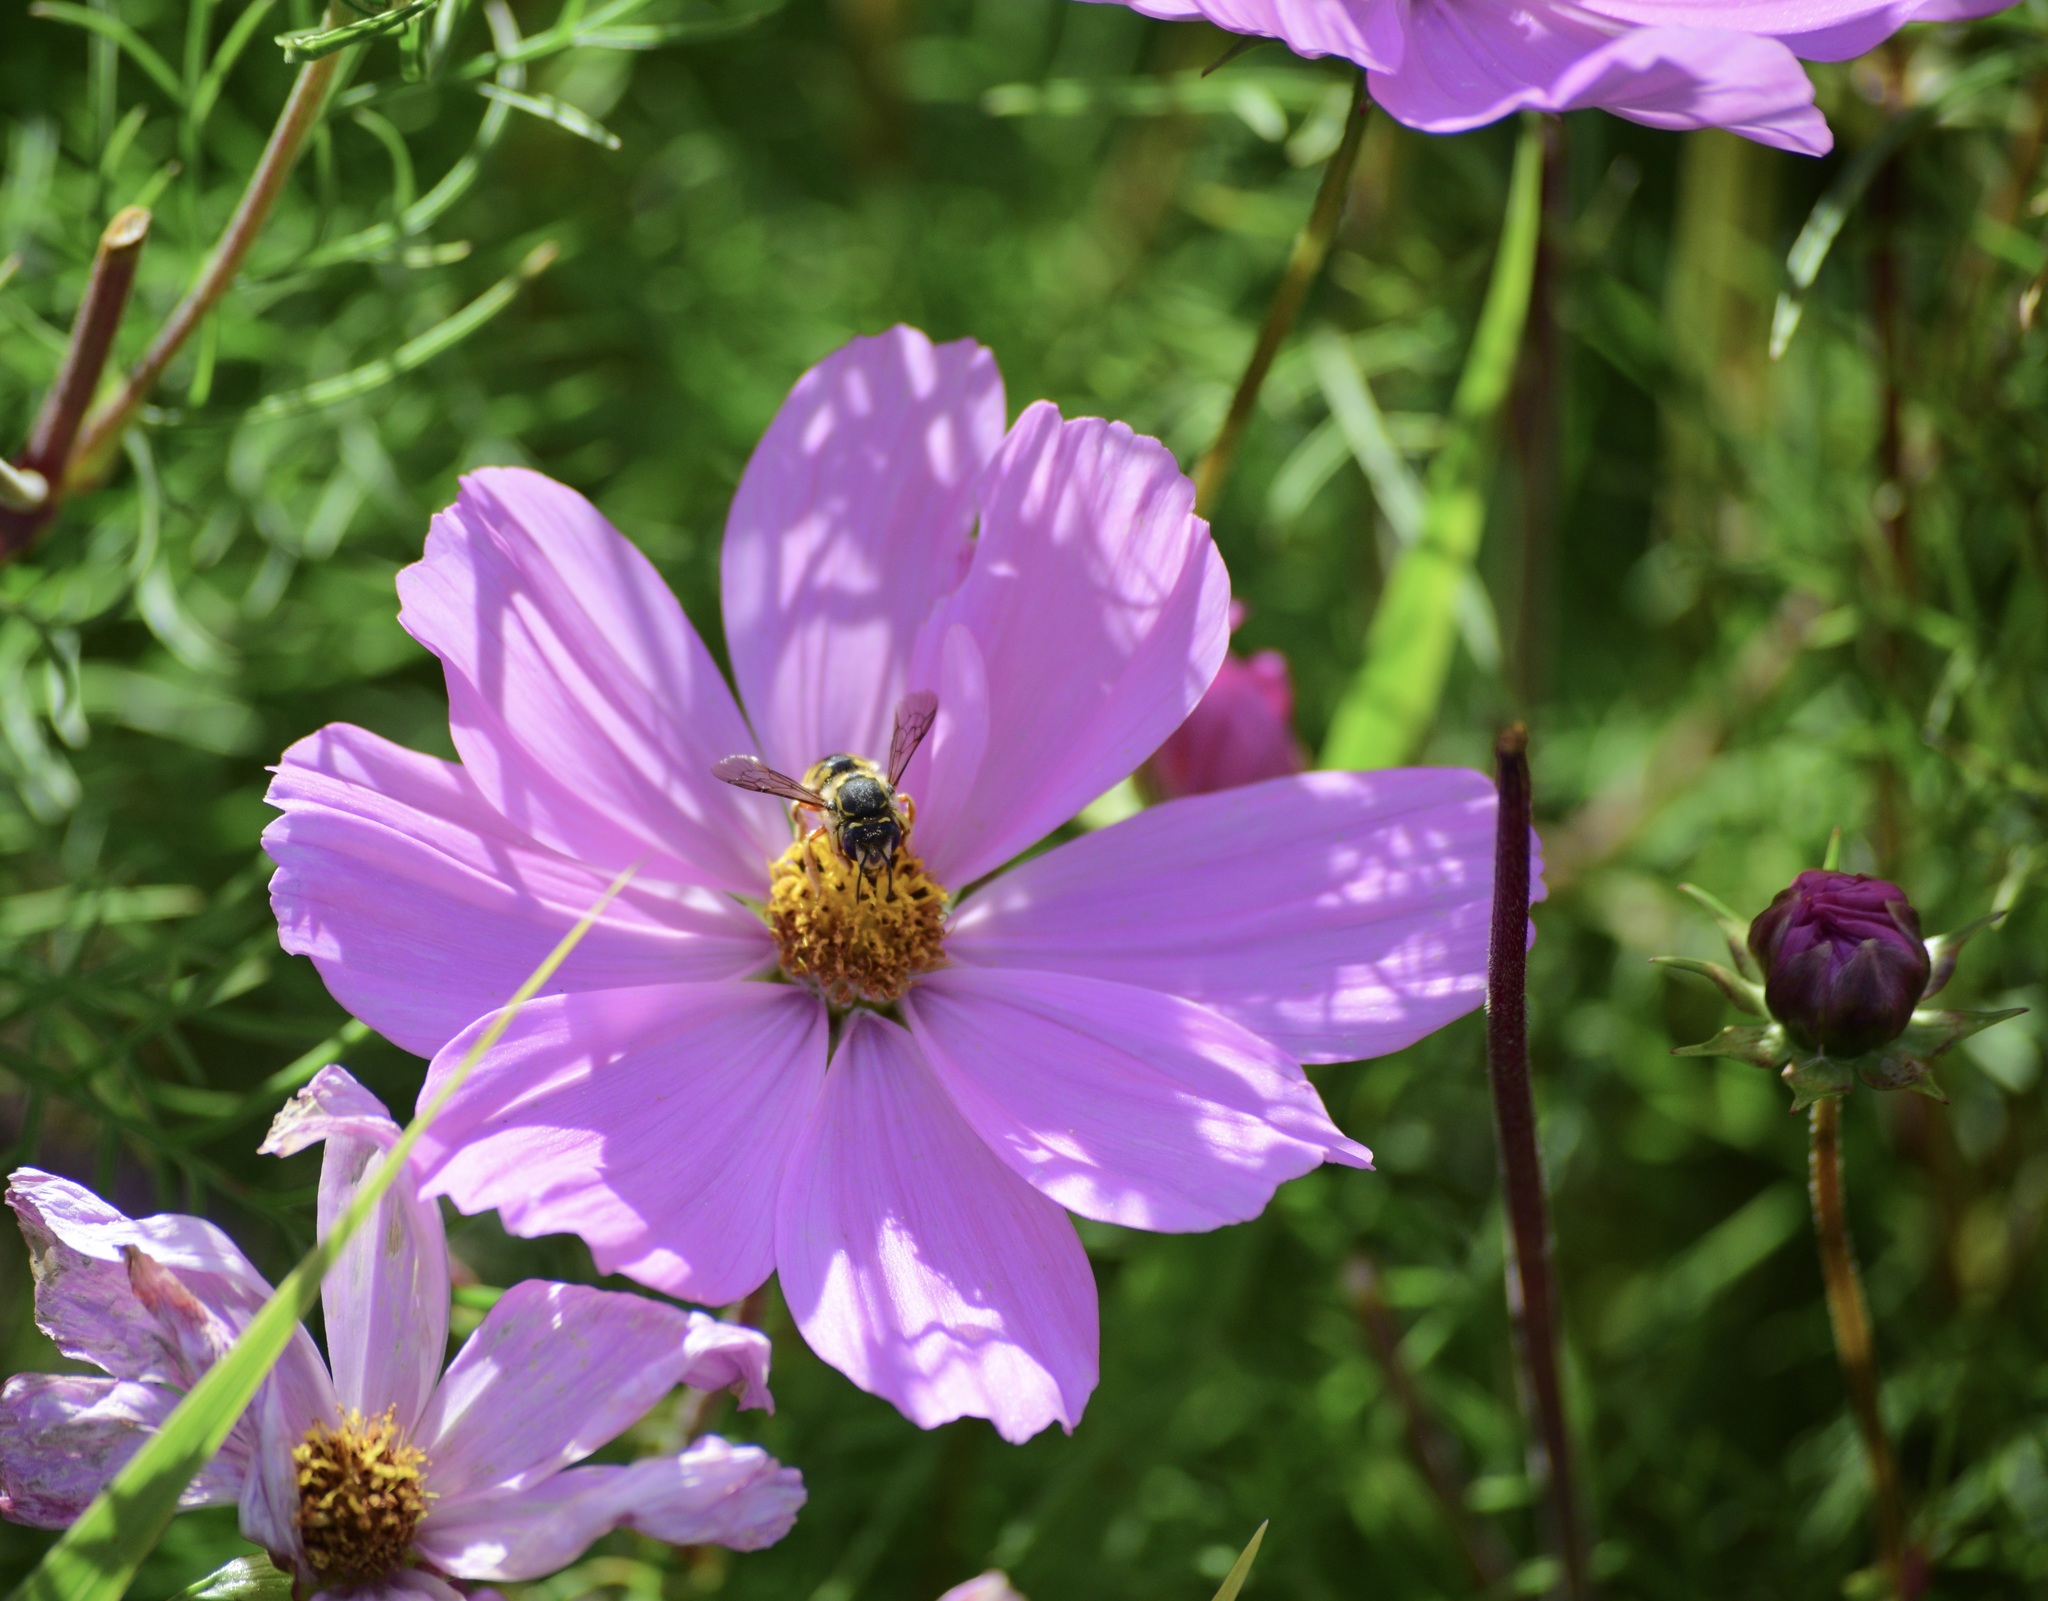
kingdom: Animalia
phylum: Arthropoda
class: Insecta
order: Hymenoptera
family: Megachilidae
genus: Anthidium
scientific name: Anthidium manicatum
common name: Wool carder bee
